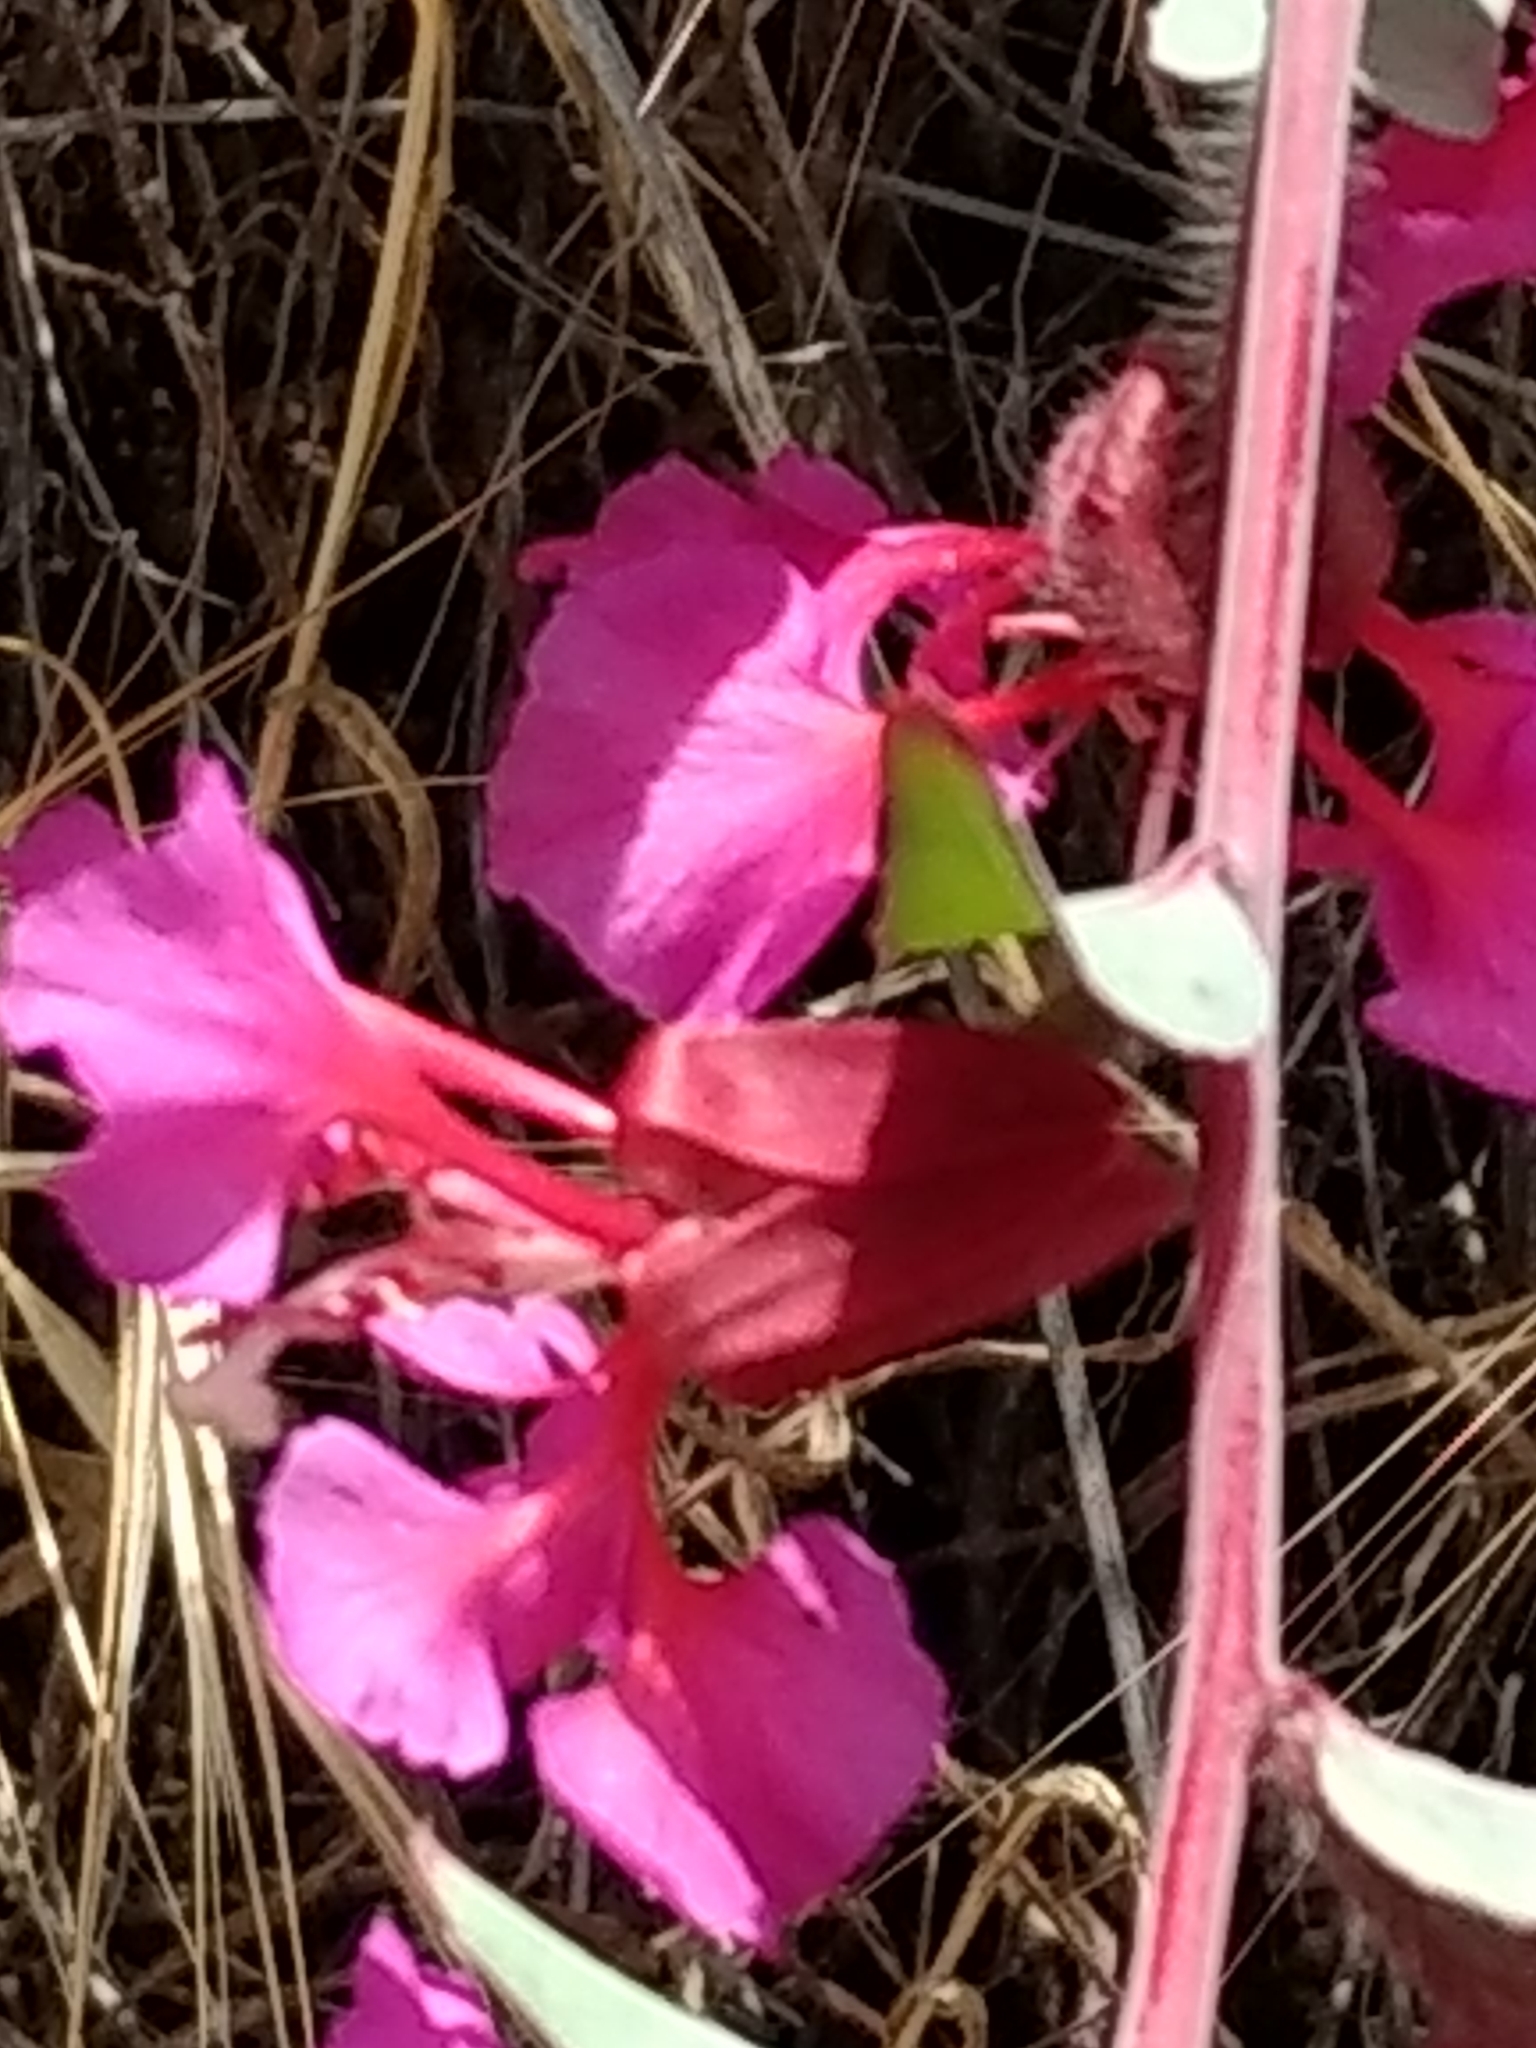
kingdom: Plantae
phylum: Tracheophyta
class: Magnoliopsida
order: Myrtales
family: Onagraceae
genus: Clarkia
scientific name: Clarkia unguiculata
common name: Clarkia
